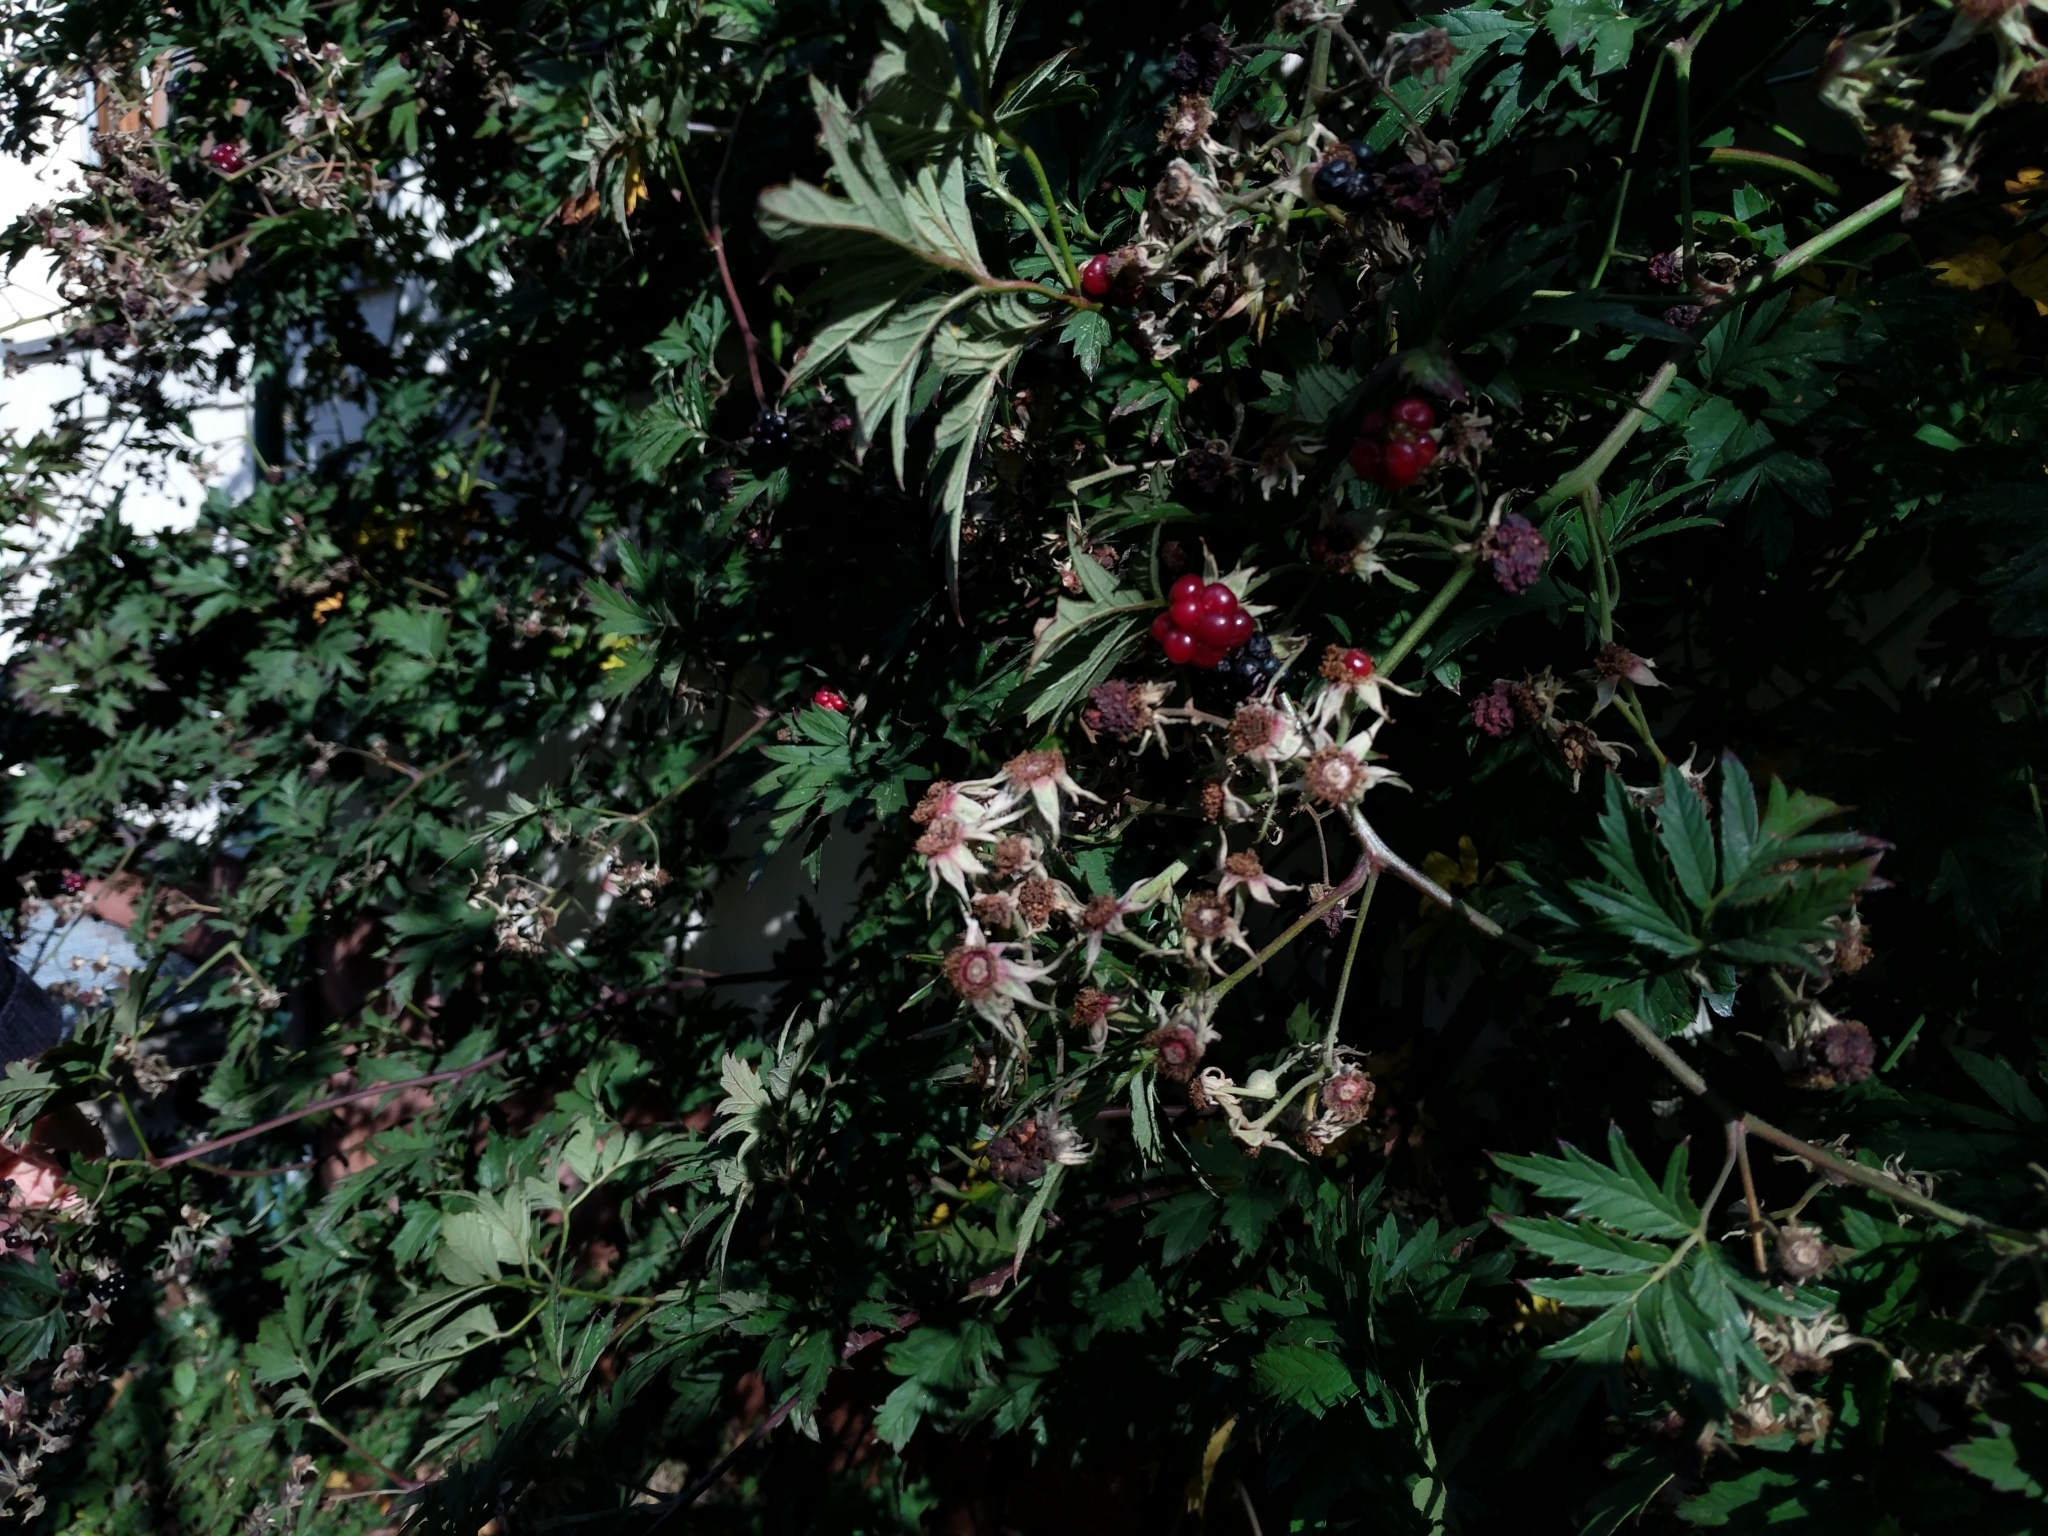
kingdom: Plantae
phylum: Tracheophyta
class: Magnoliopsida
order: Rosales
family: Rosaceae
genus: Rubus
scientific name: Rubus laciniatus
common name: Evergreen blackberry
